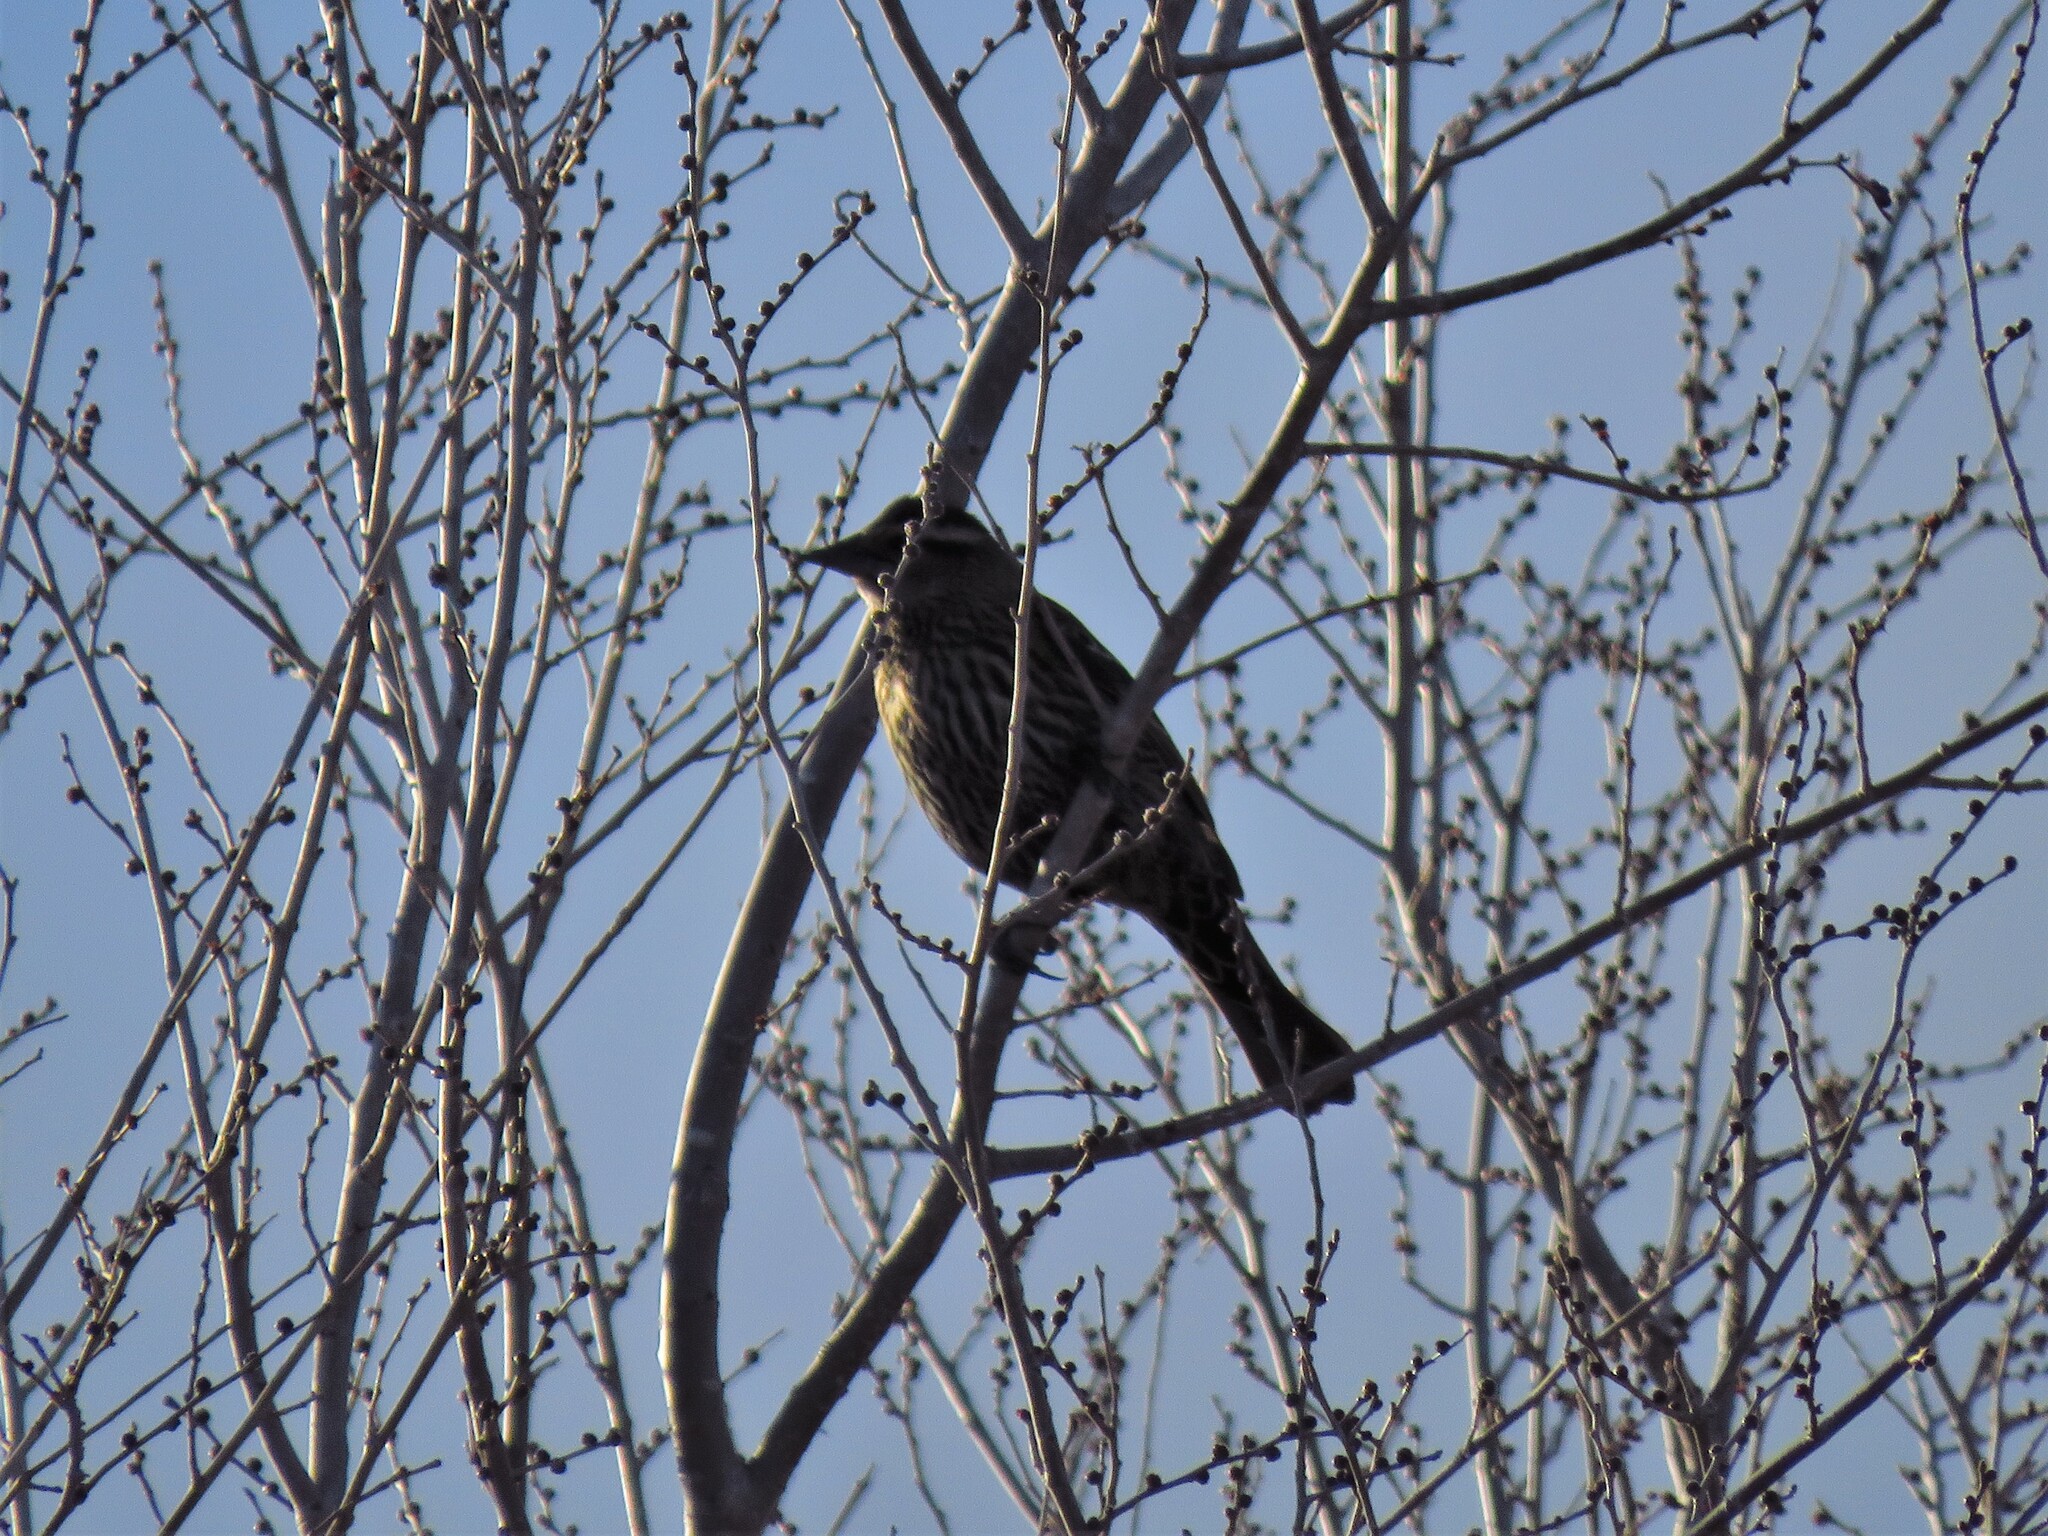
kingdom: Animalia
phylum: Chordata
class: Aves
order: Passeriformes
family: Icteridae
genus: Agelaius
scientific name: Agelaius phoeniceus
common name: Red-winged blackbird
